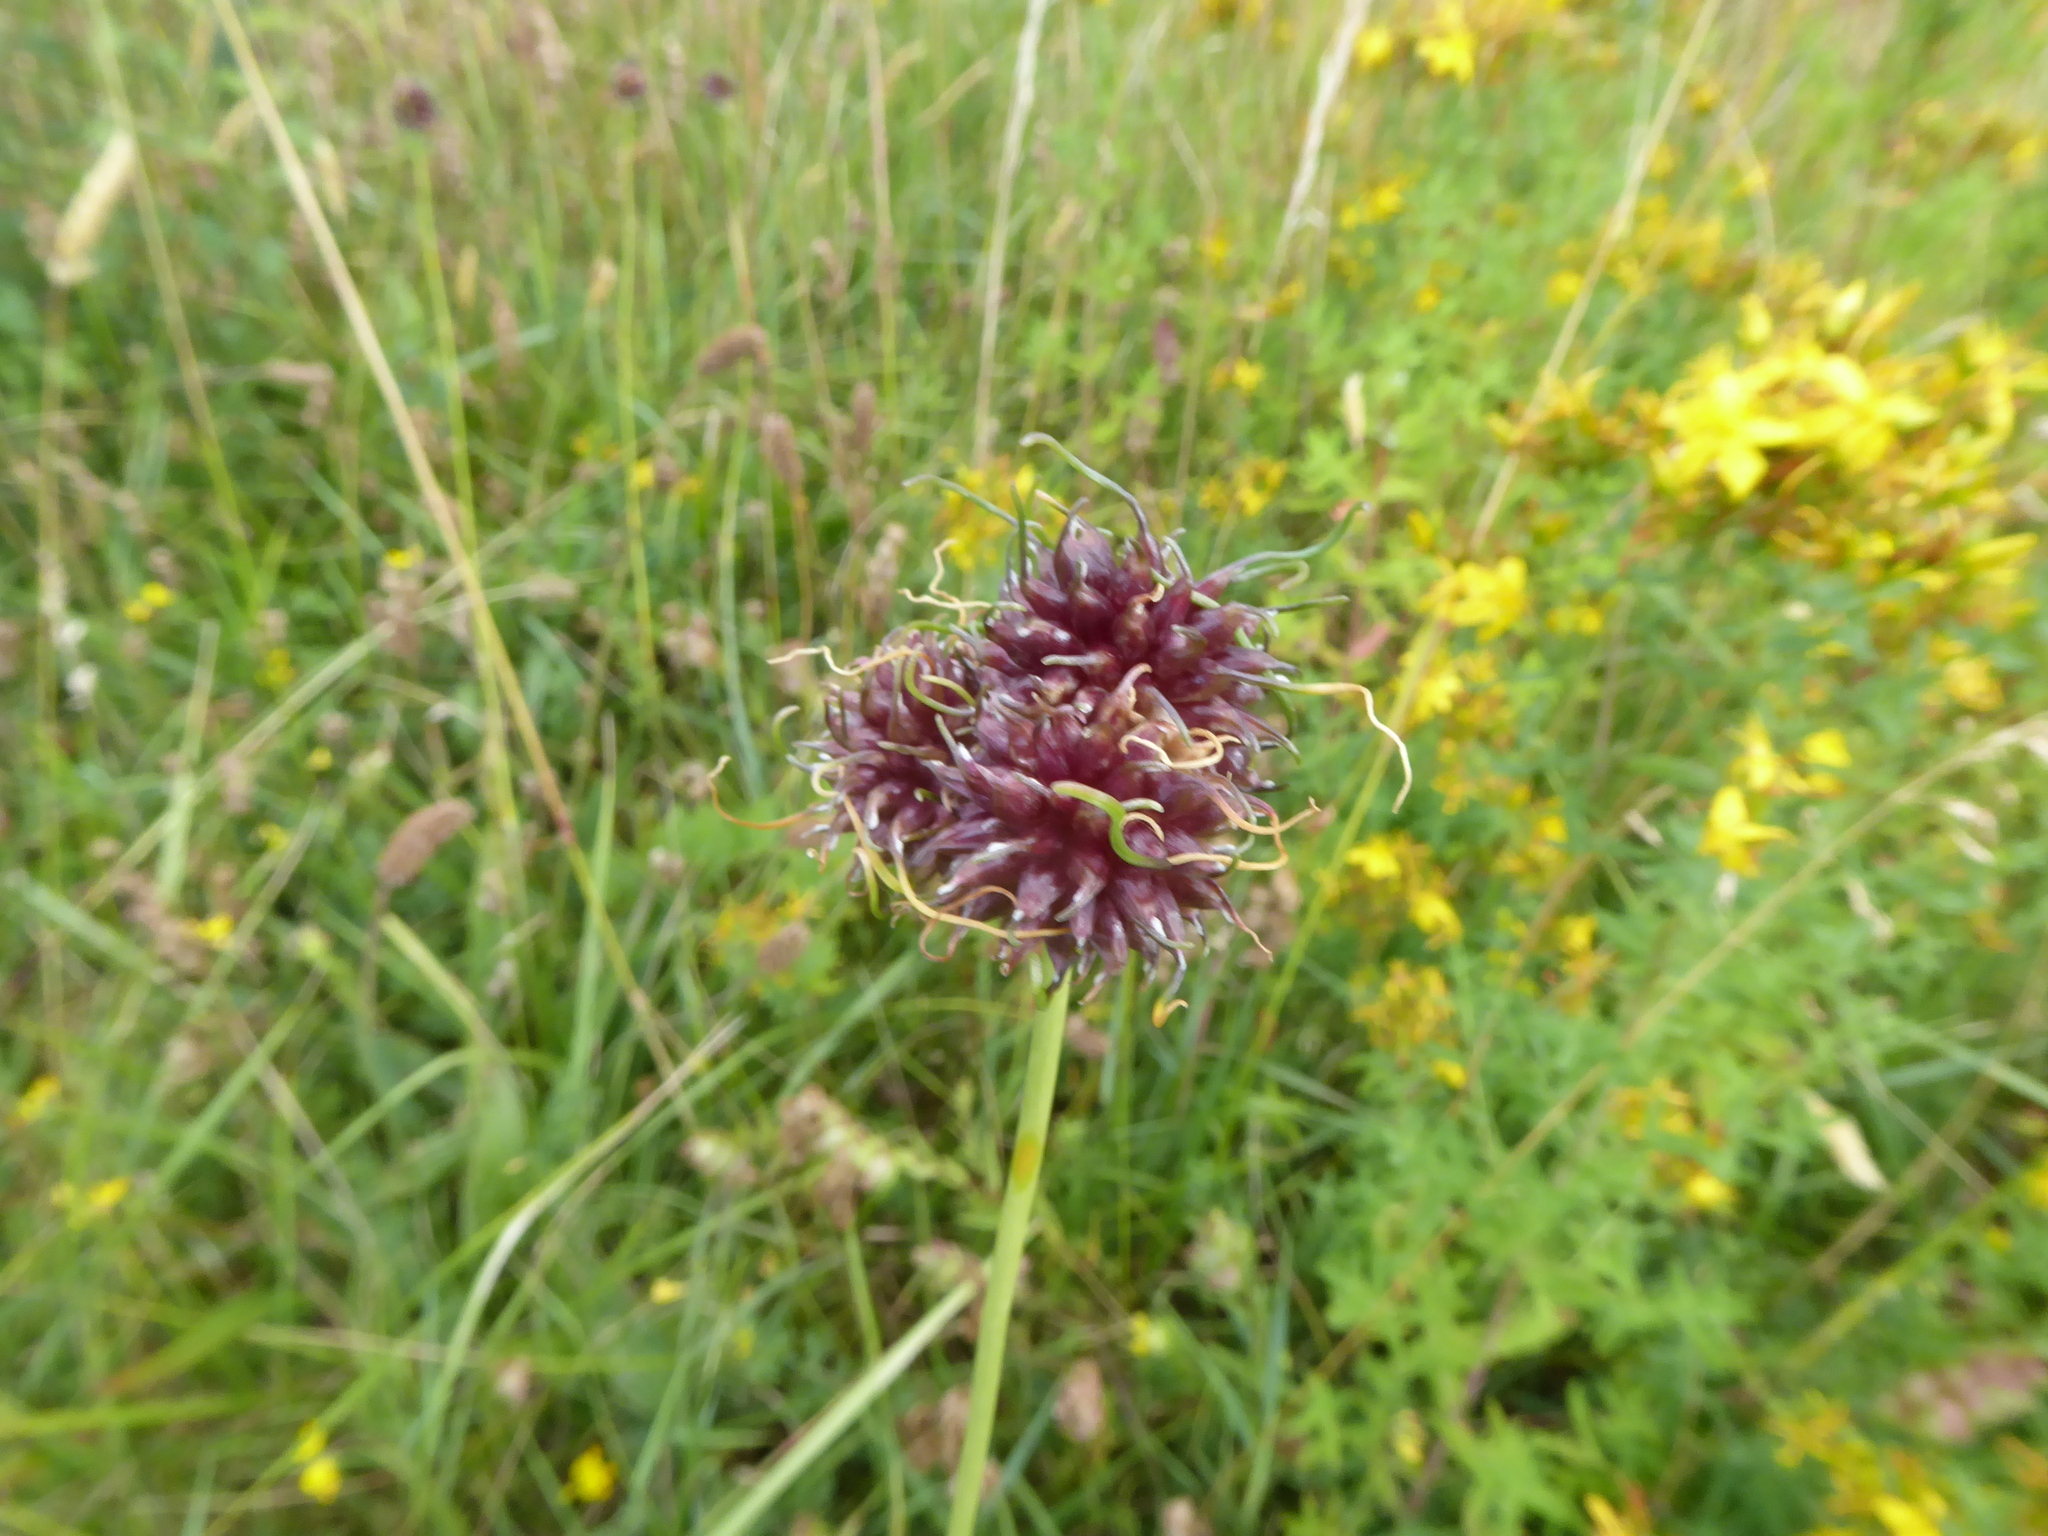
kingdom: Plantae
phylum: Tracheophyta
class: Liliopsida
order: Asparagales
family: Amaryllidaceae
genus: Allium
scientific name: Allium vineale
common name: Crow garlic
